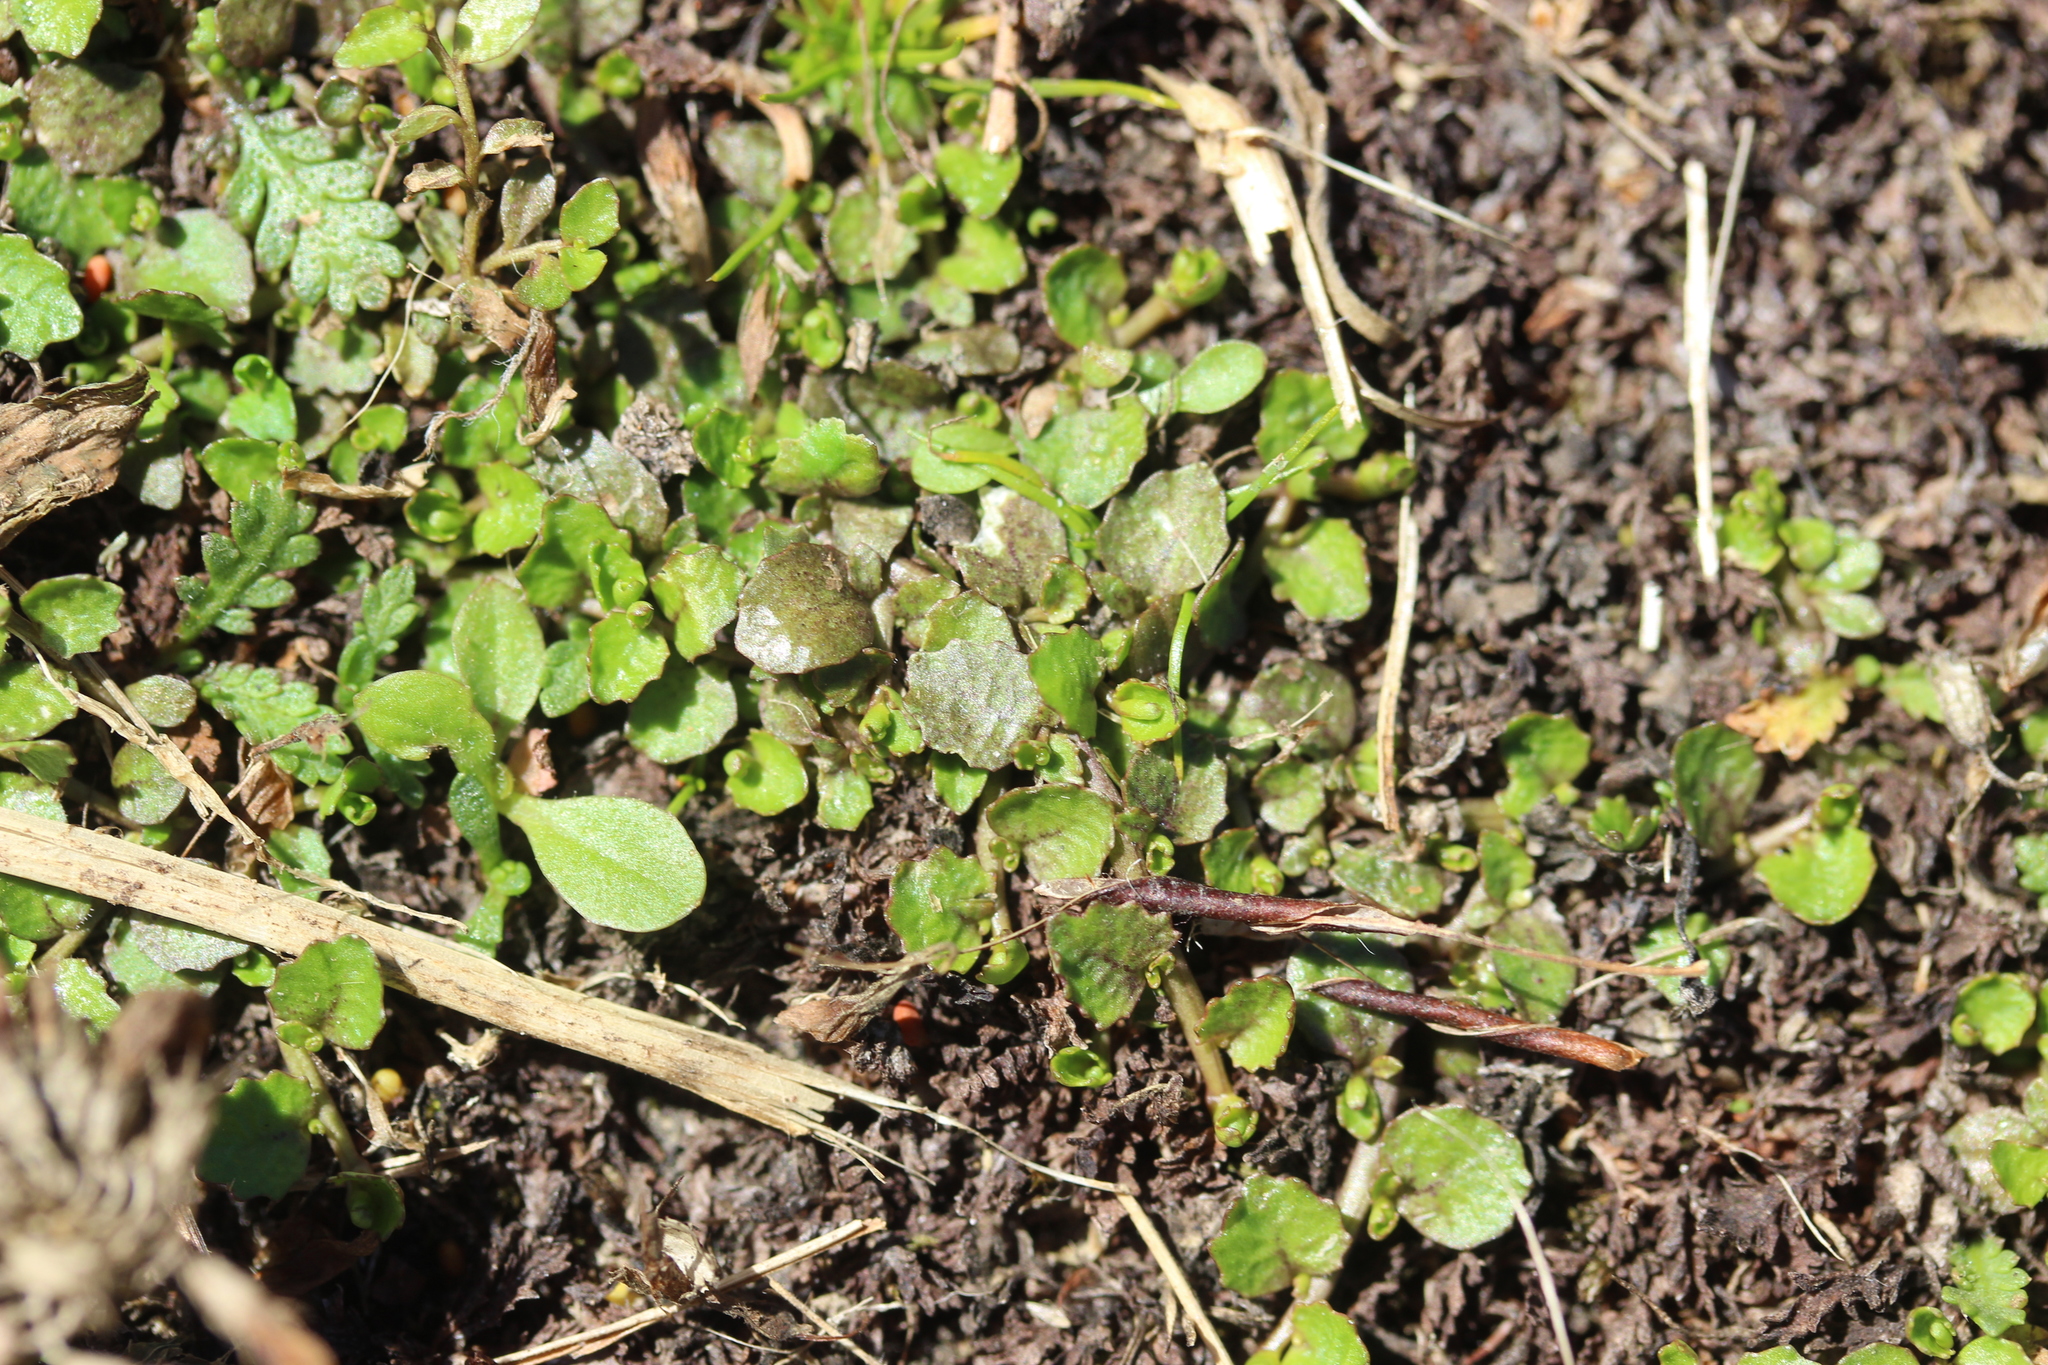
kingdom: Plantae
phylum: Tracheophyta
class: Magnoliopsida
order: Asterales
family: Campanulaceae
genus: Lobelia
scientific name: Lobelia perpusilla
